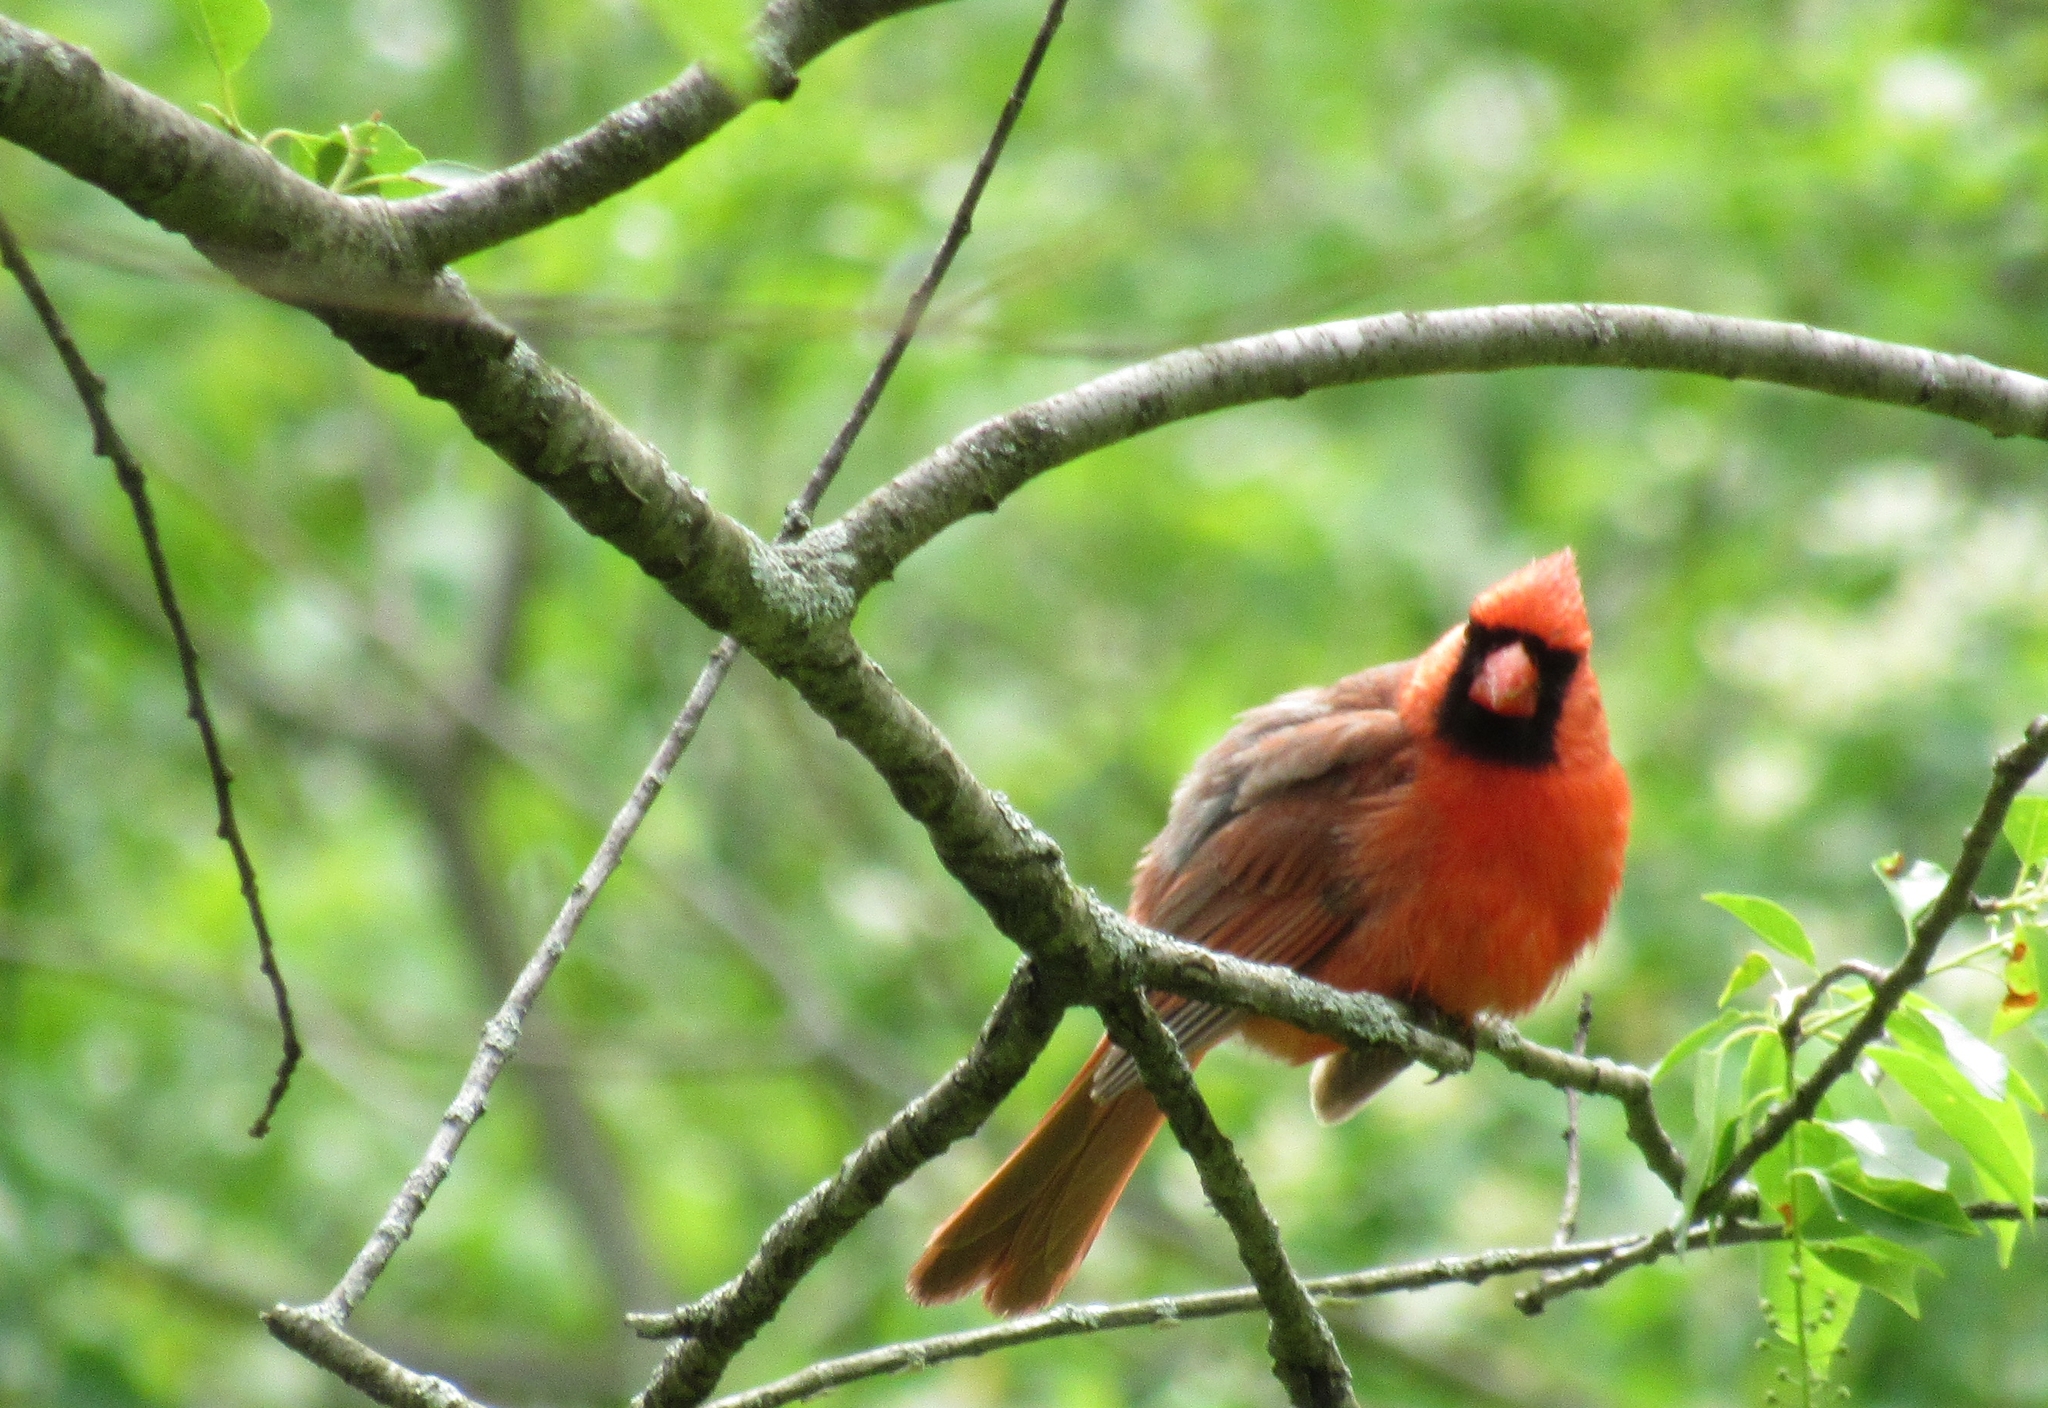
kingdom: Animalia
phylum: Chordata
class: Aves
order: Passeriformes
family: Cardinalidae
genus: Cardinalis
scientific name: Cardinalis cardinalis
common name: Northern cardinal
